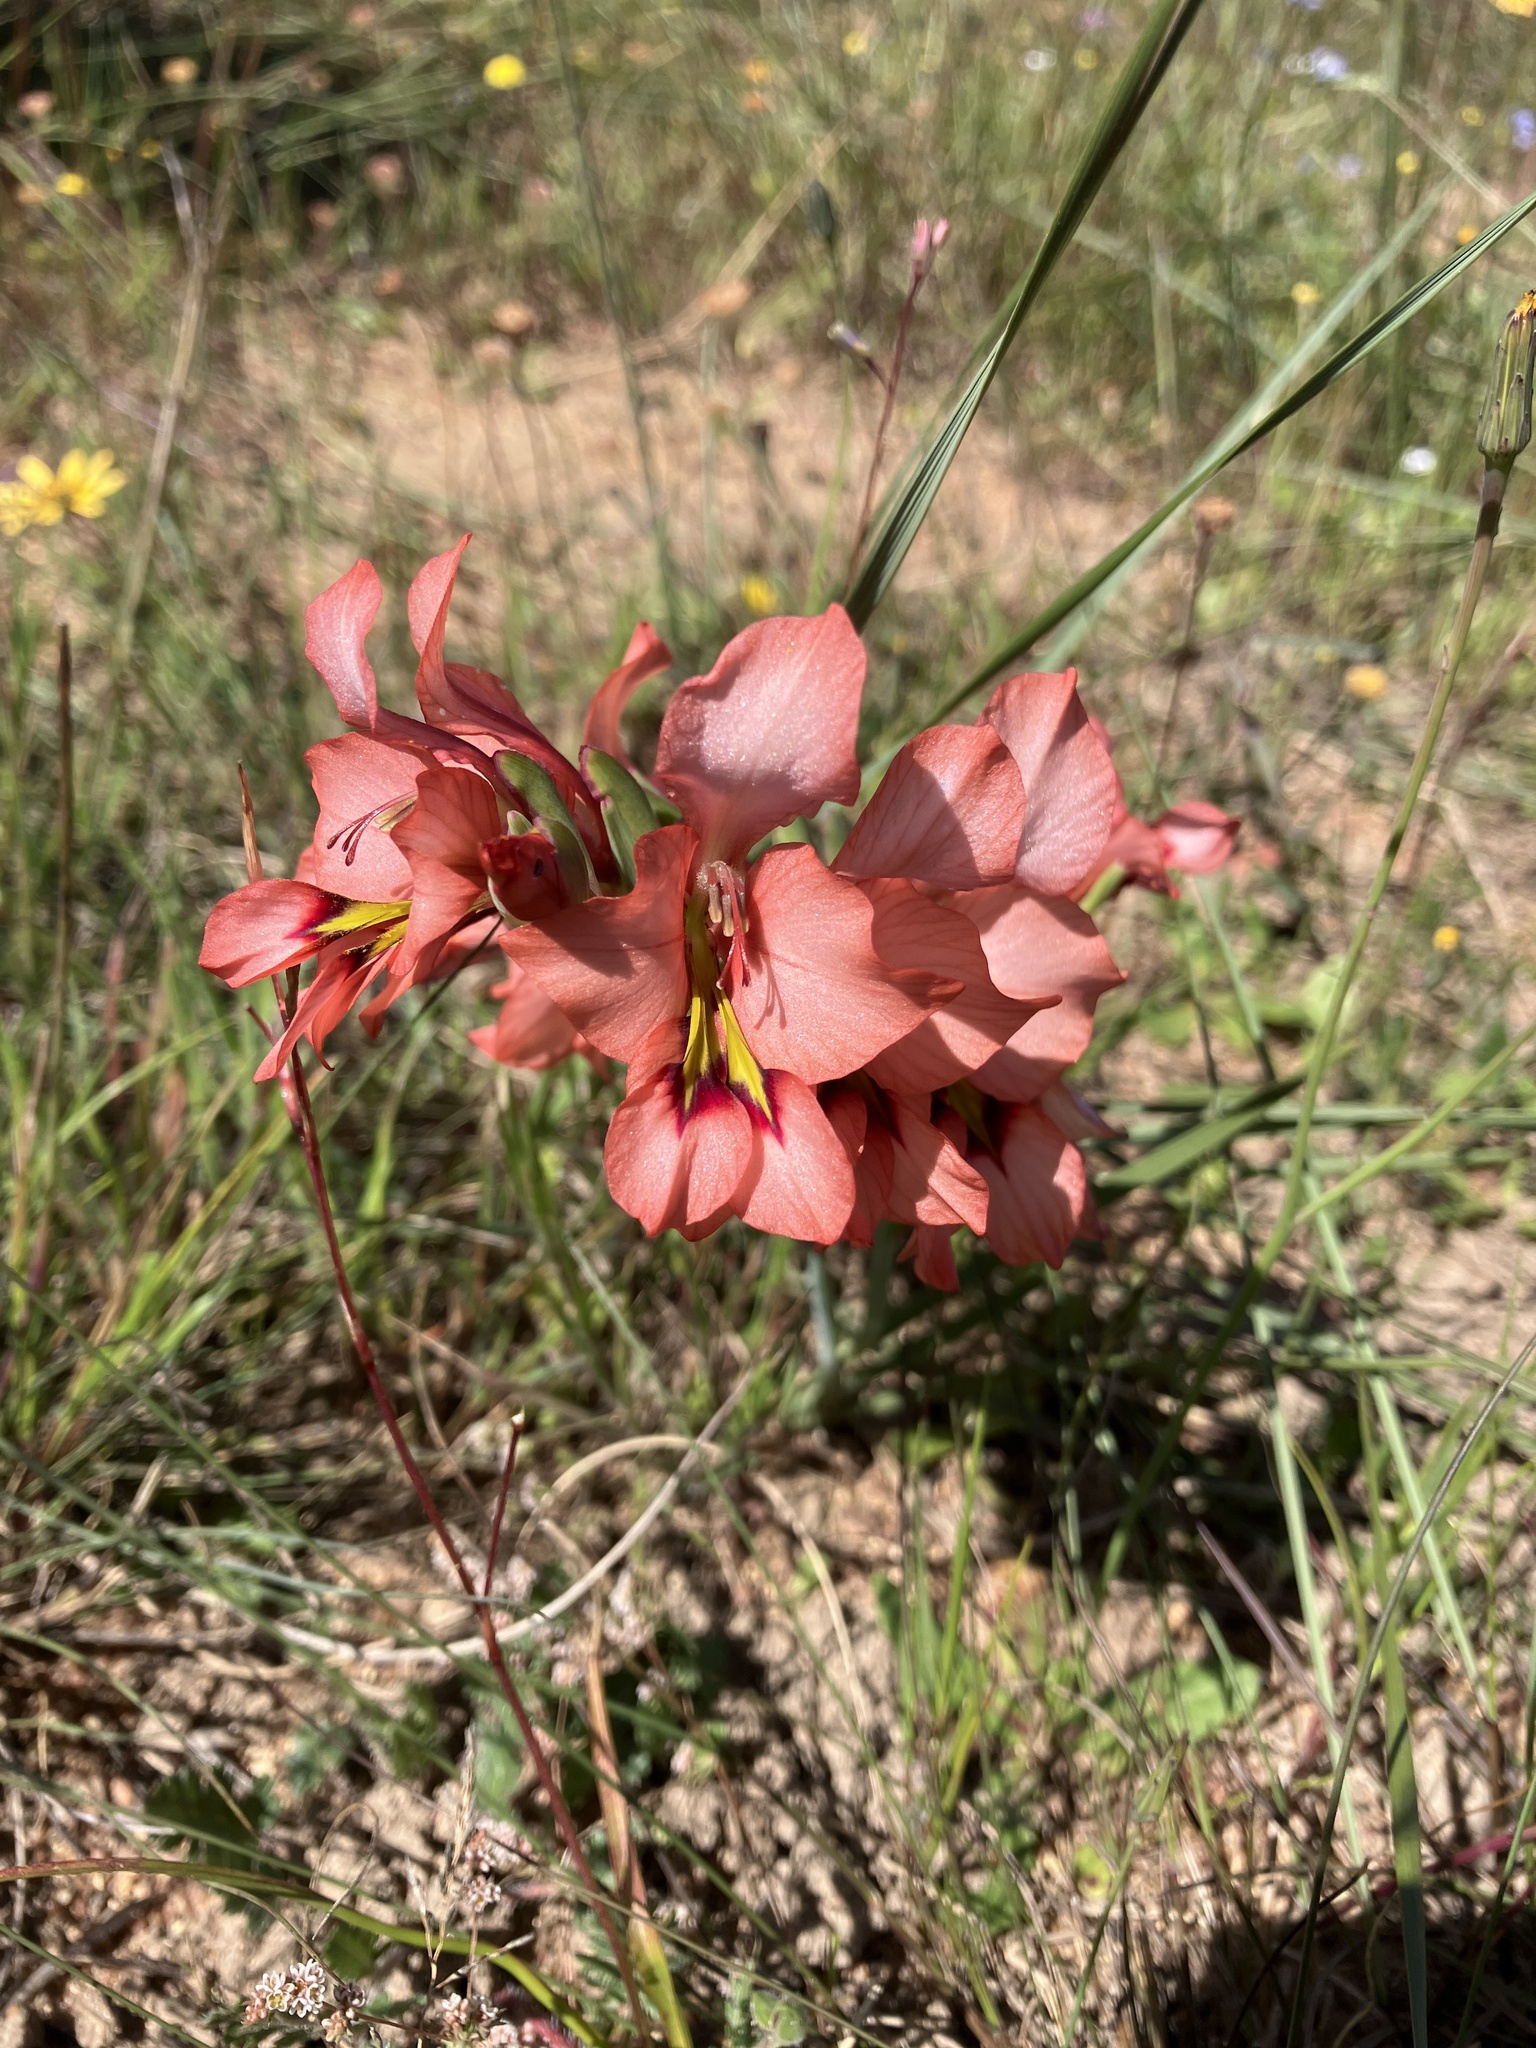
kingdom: Plantae
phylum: Tracheophyta
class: Liliopsida
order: Asparagales
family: Iridaceae
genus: Gladiolus
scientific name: Gladiolus meliusculus
